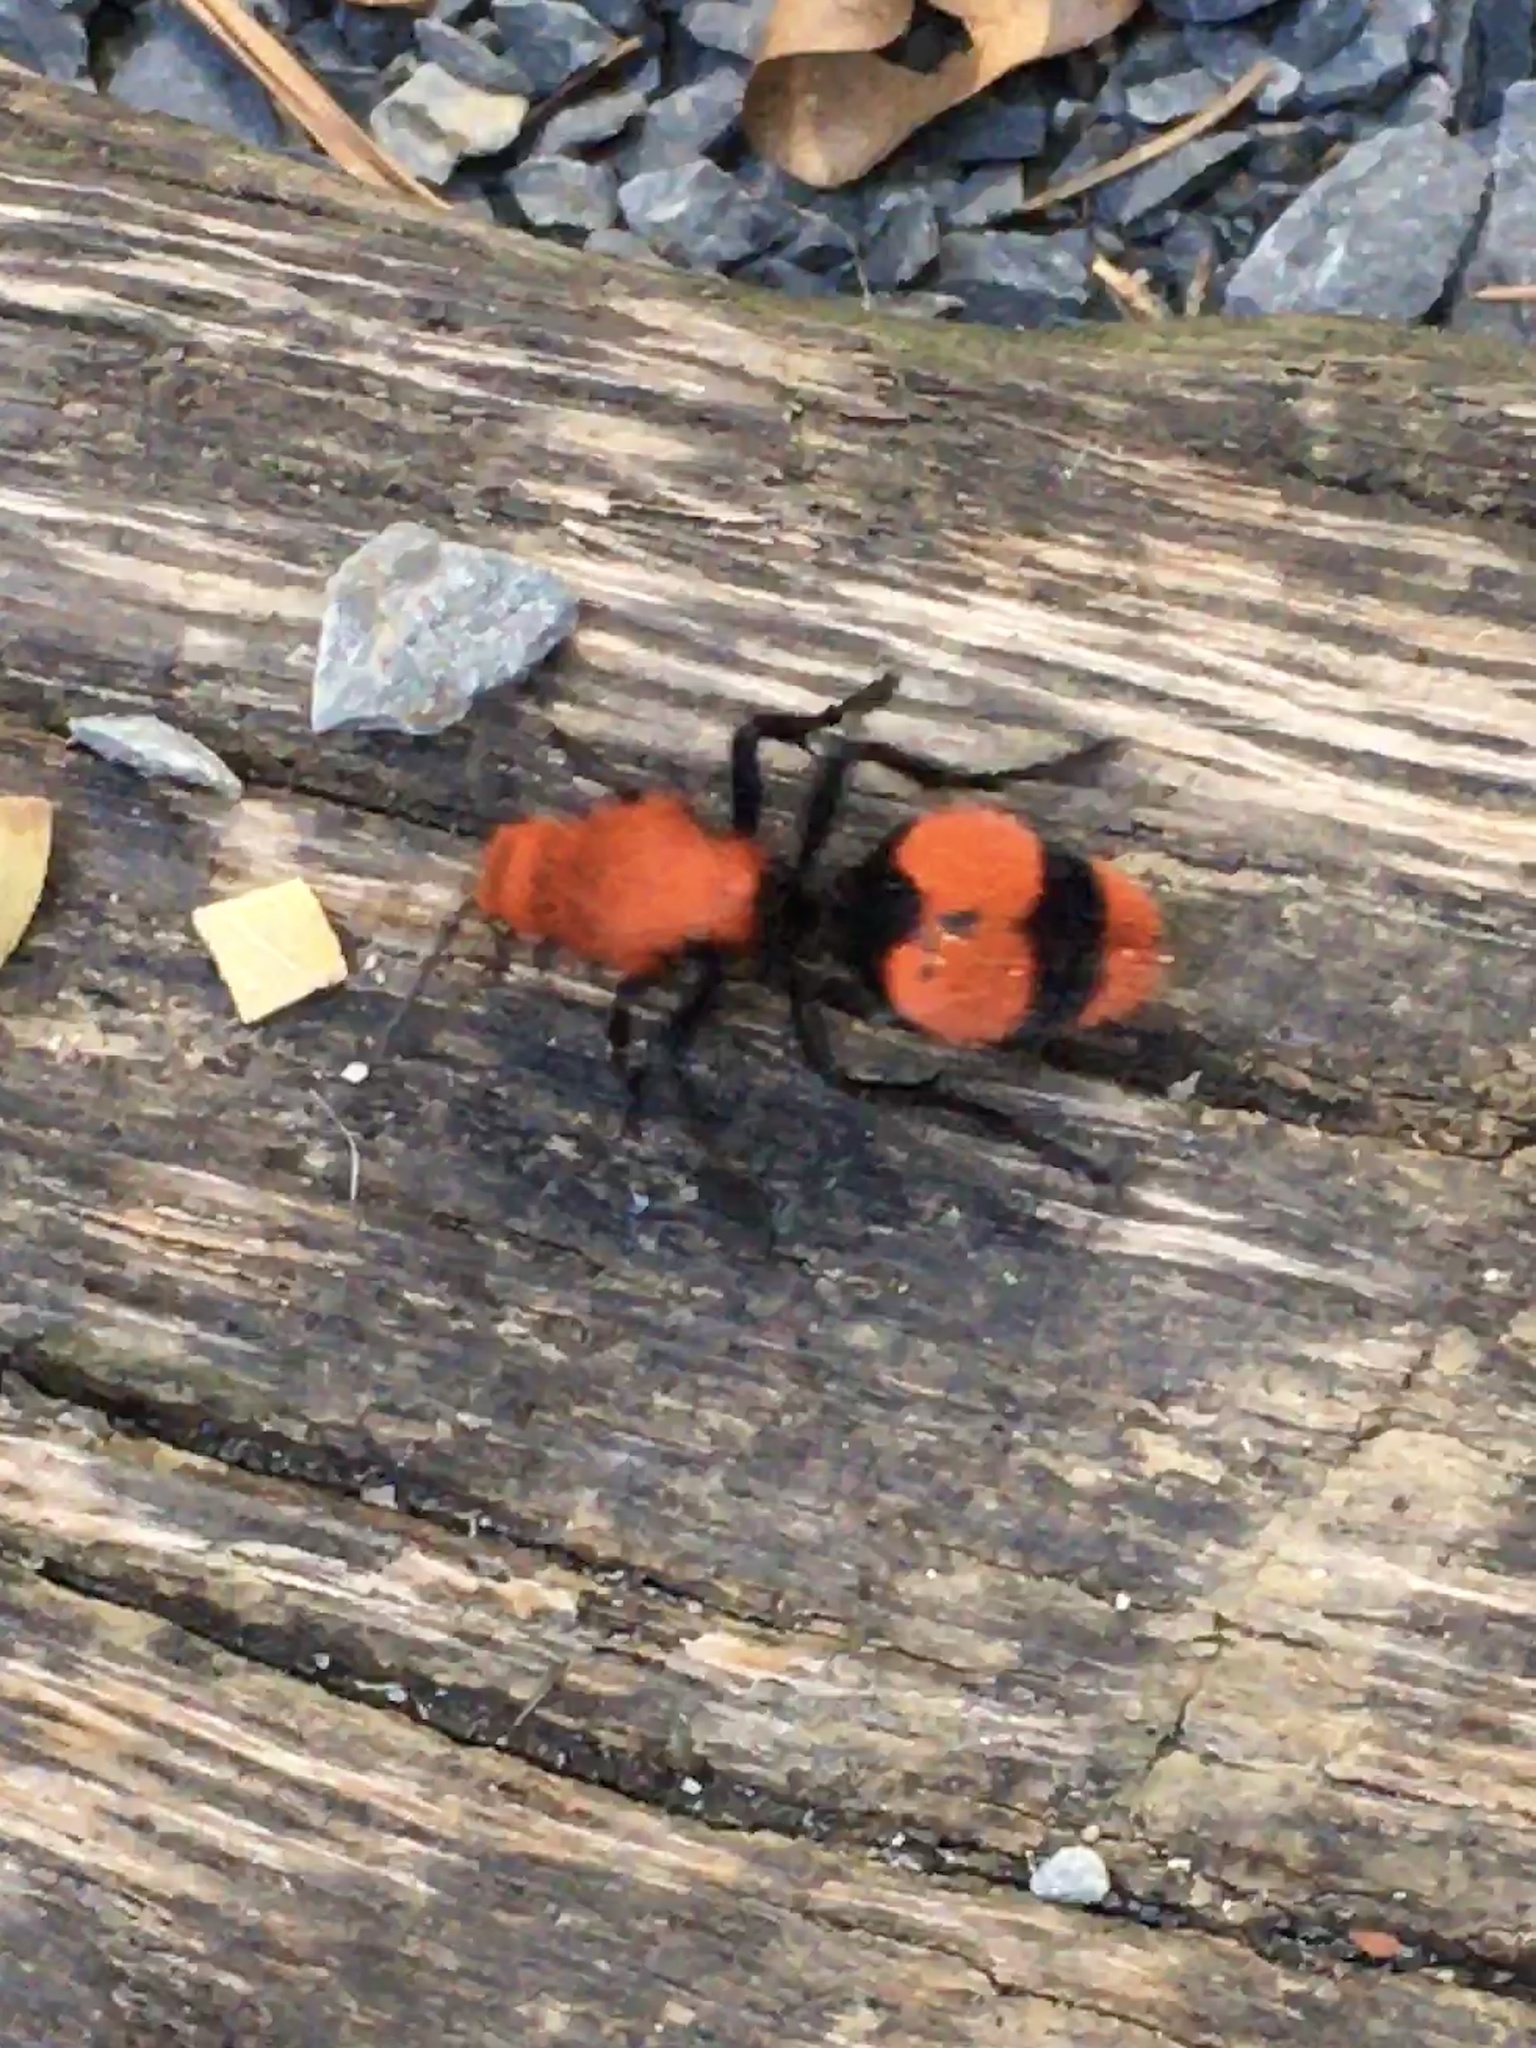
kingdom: Animalia
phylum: Arthropoda
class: Insecta
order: Hymenoptera
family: Mutillidae
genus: Dasymutilla
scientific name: Dasymutilla occidentalis
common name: Common eastern velvet ant
